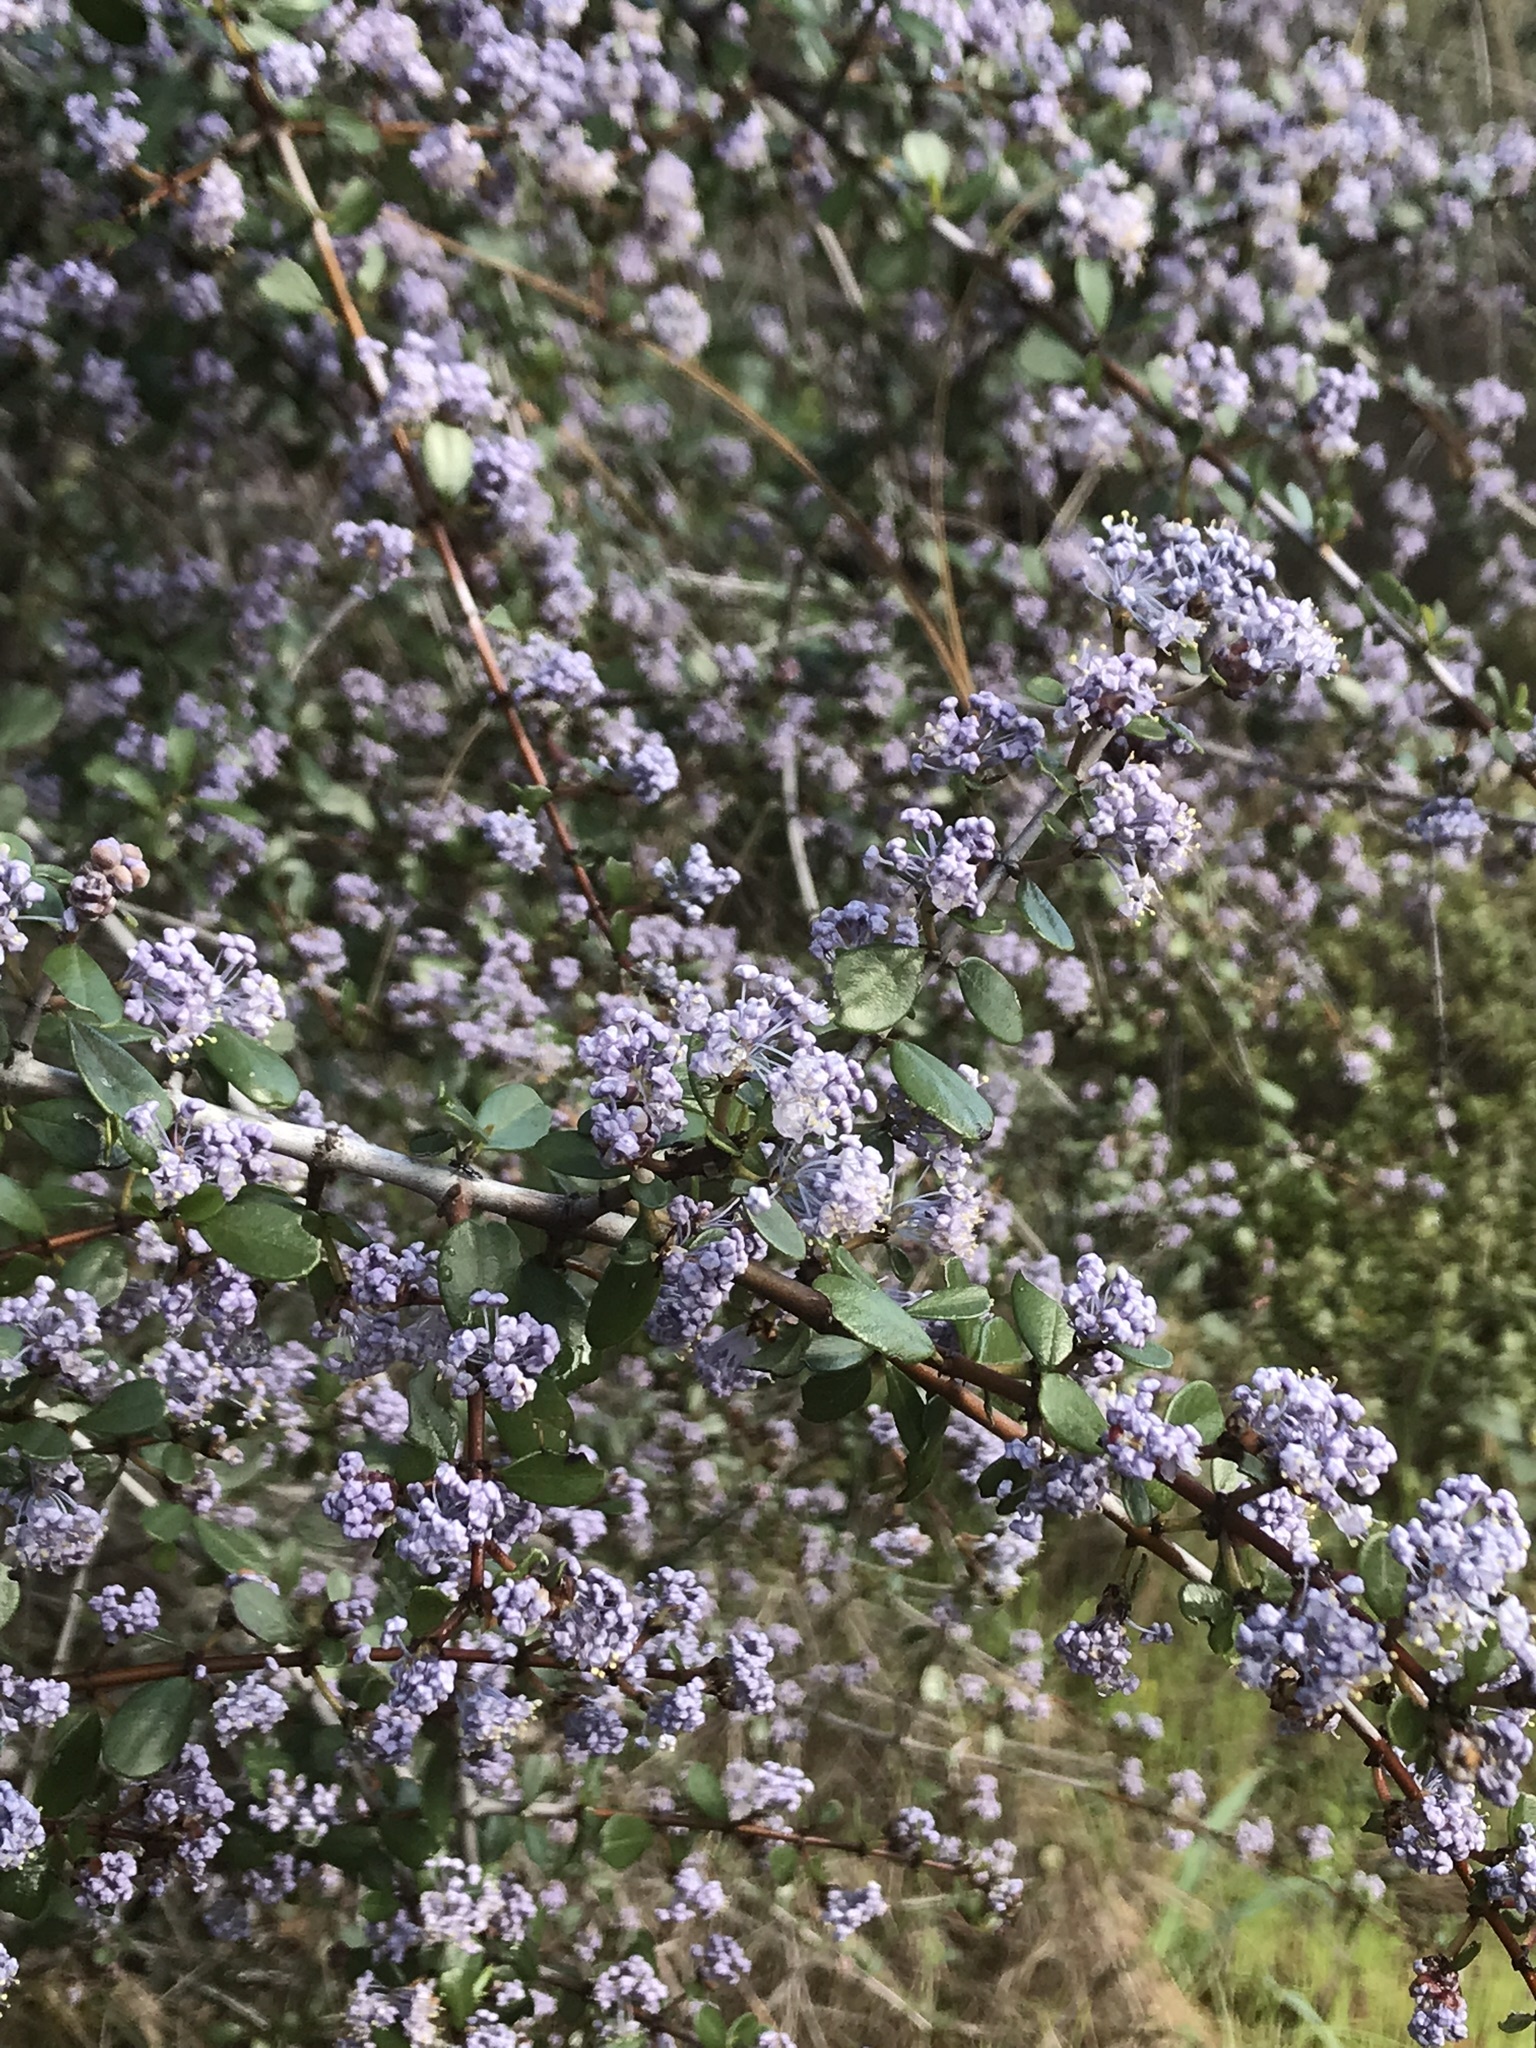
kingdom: Plantae
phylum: Tracheophyta
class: Magnoliopsida
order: Rosales
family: Rhamnaceae
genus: Ceanothus
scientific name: Ceanothus cuneatus
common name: Cuneate ceanothus
